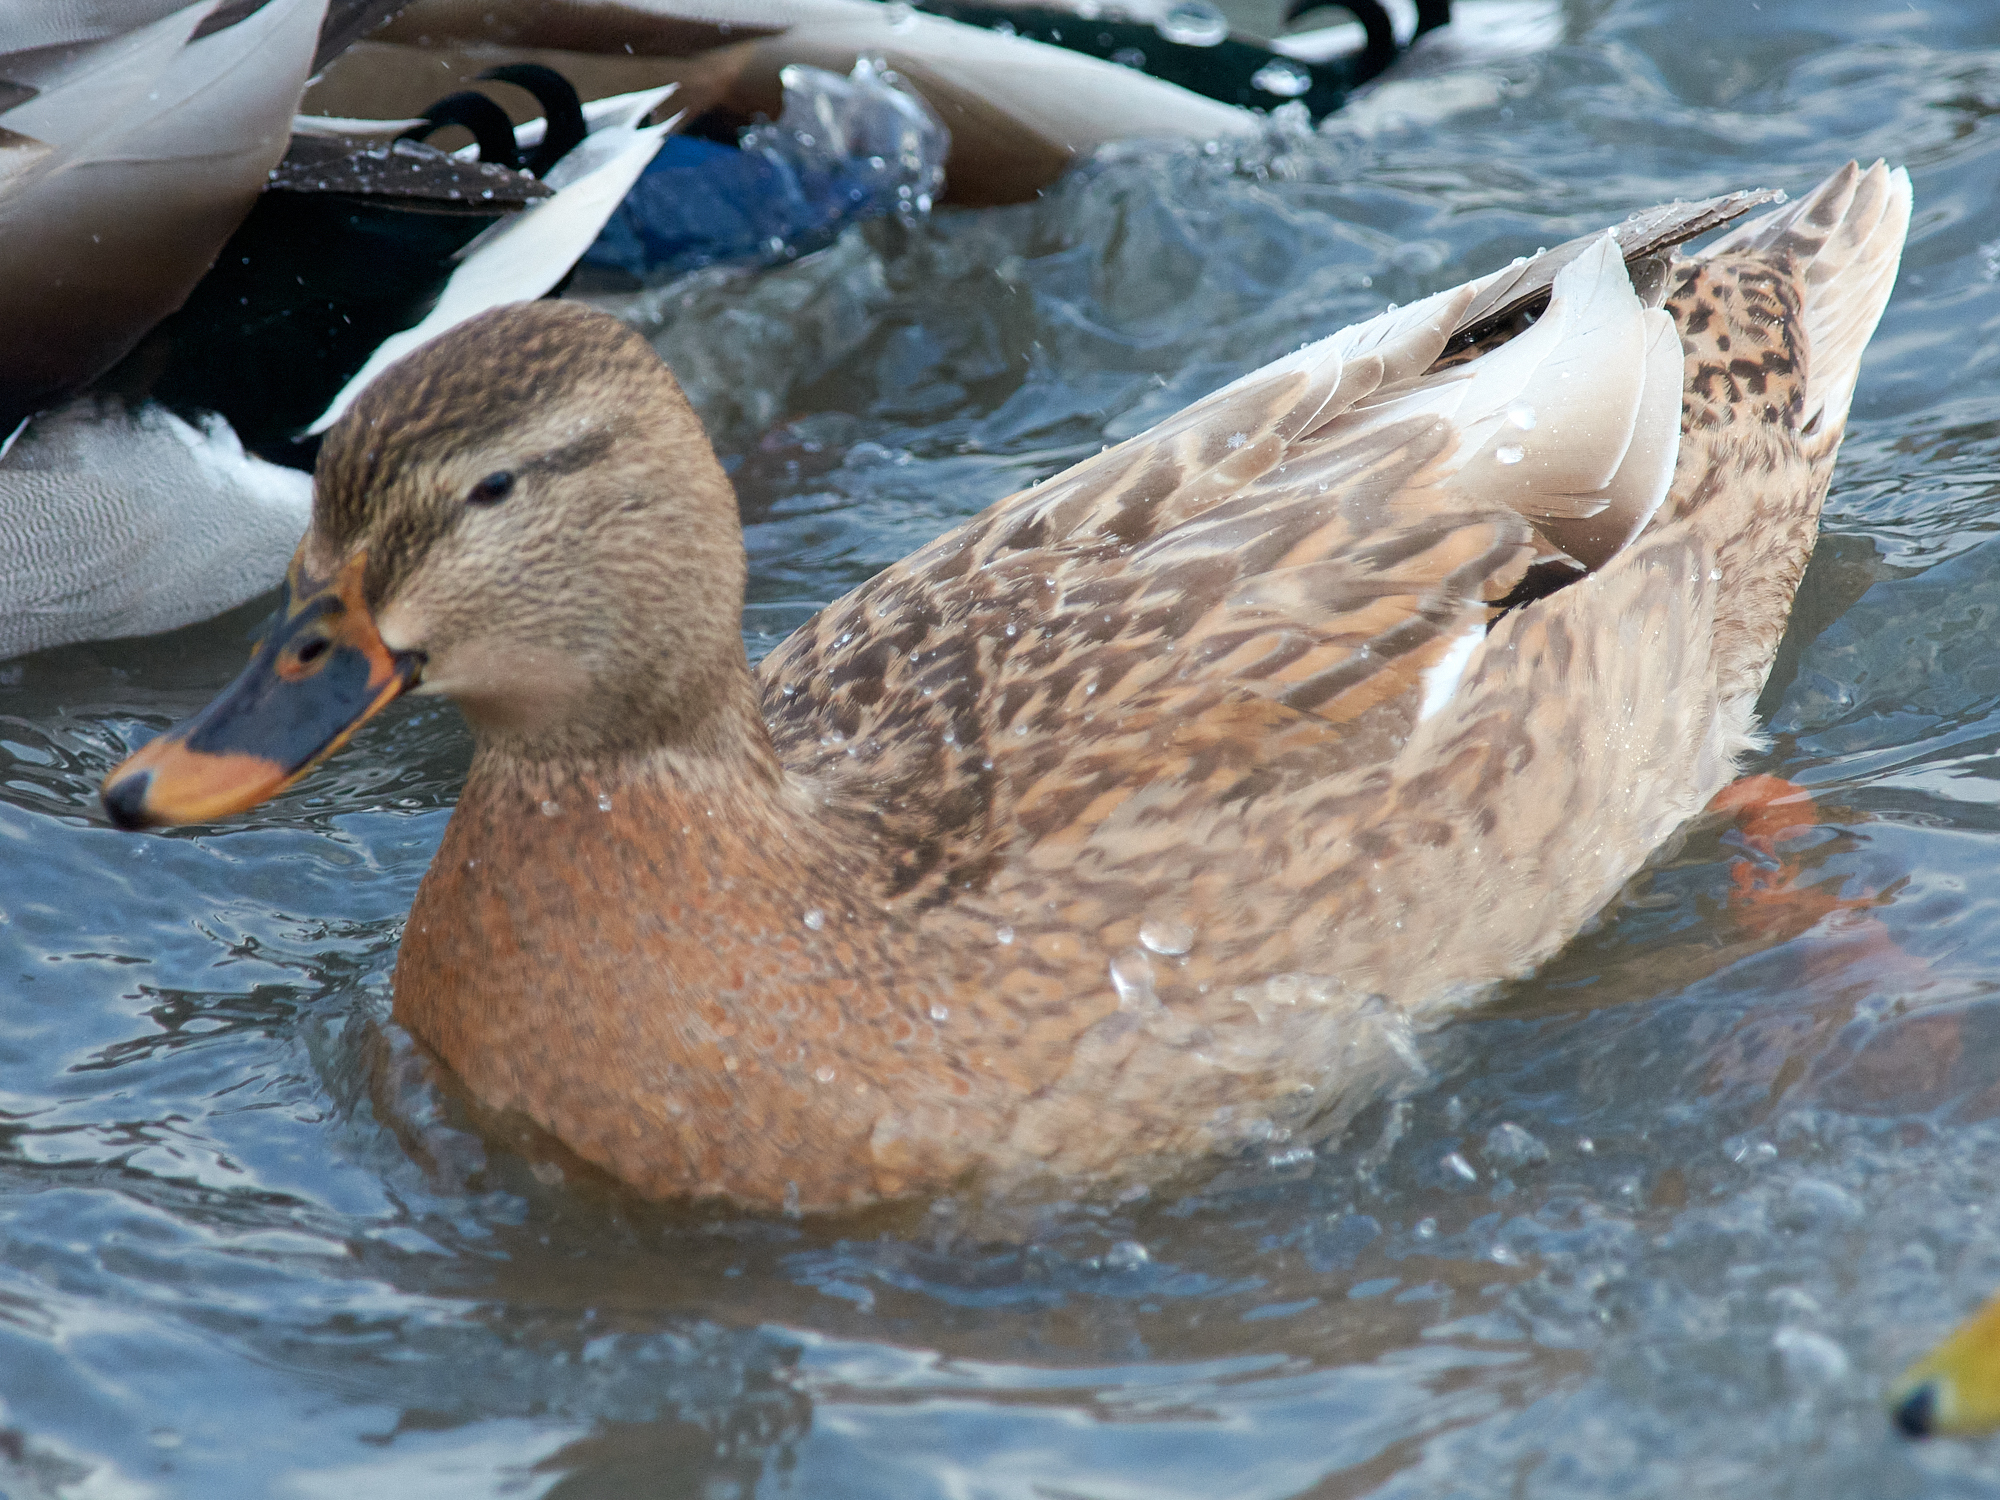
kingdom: Animalia
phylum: Chordata
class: Aves
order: Anseriformes
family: Anatidae
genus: Anas
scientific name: Anas platyrhynchos
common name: Mallard
